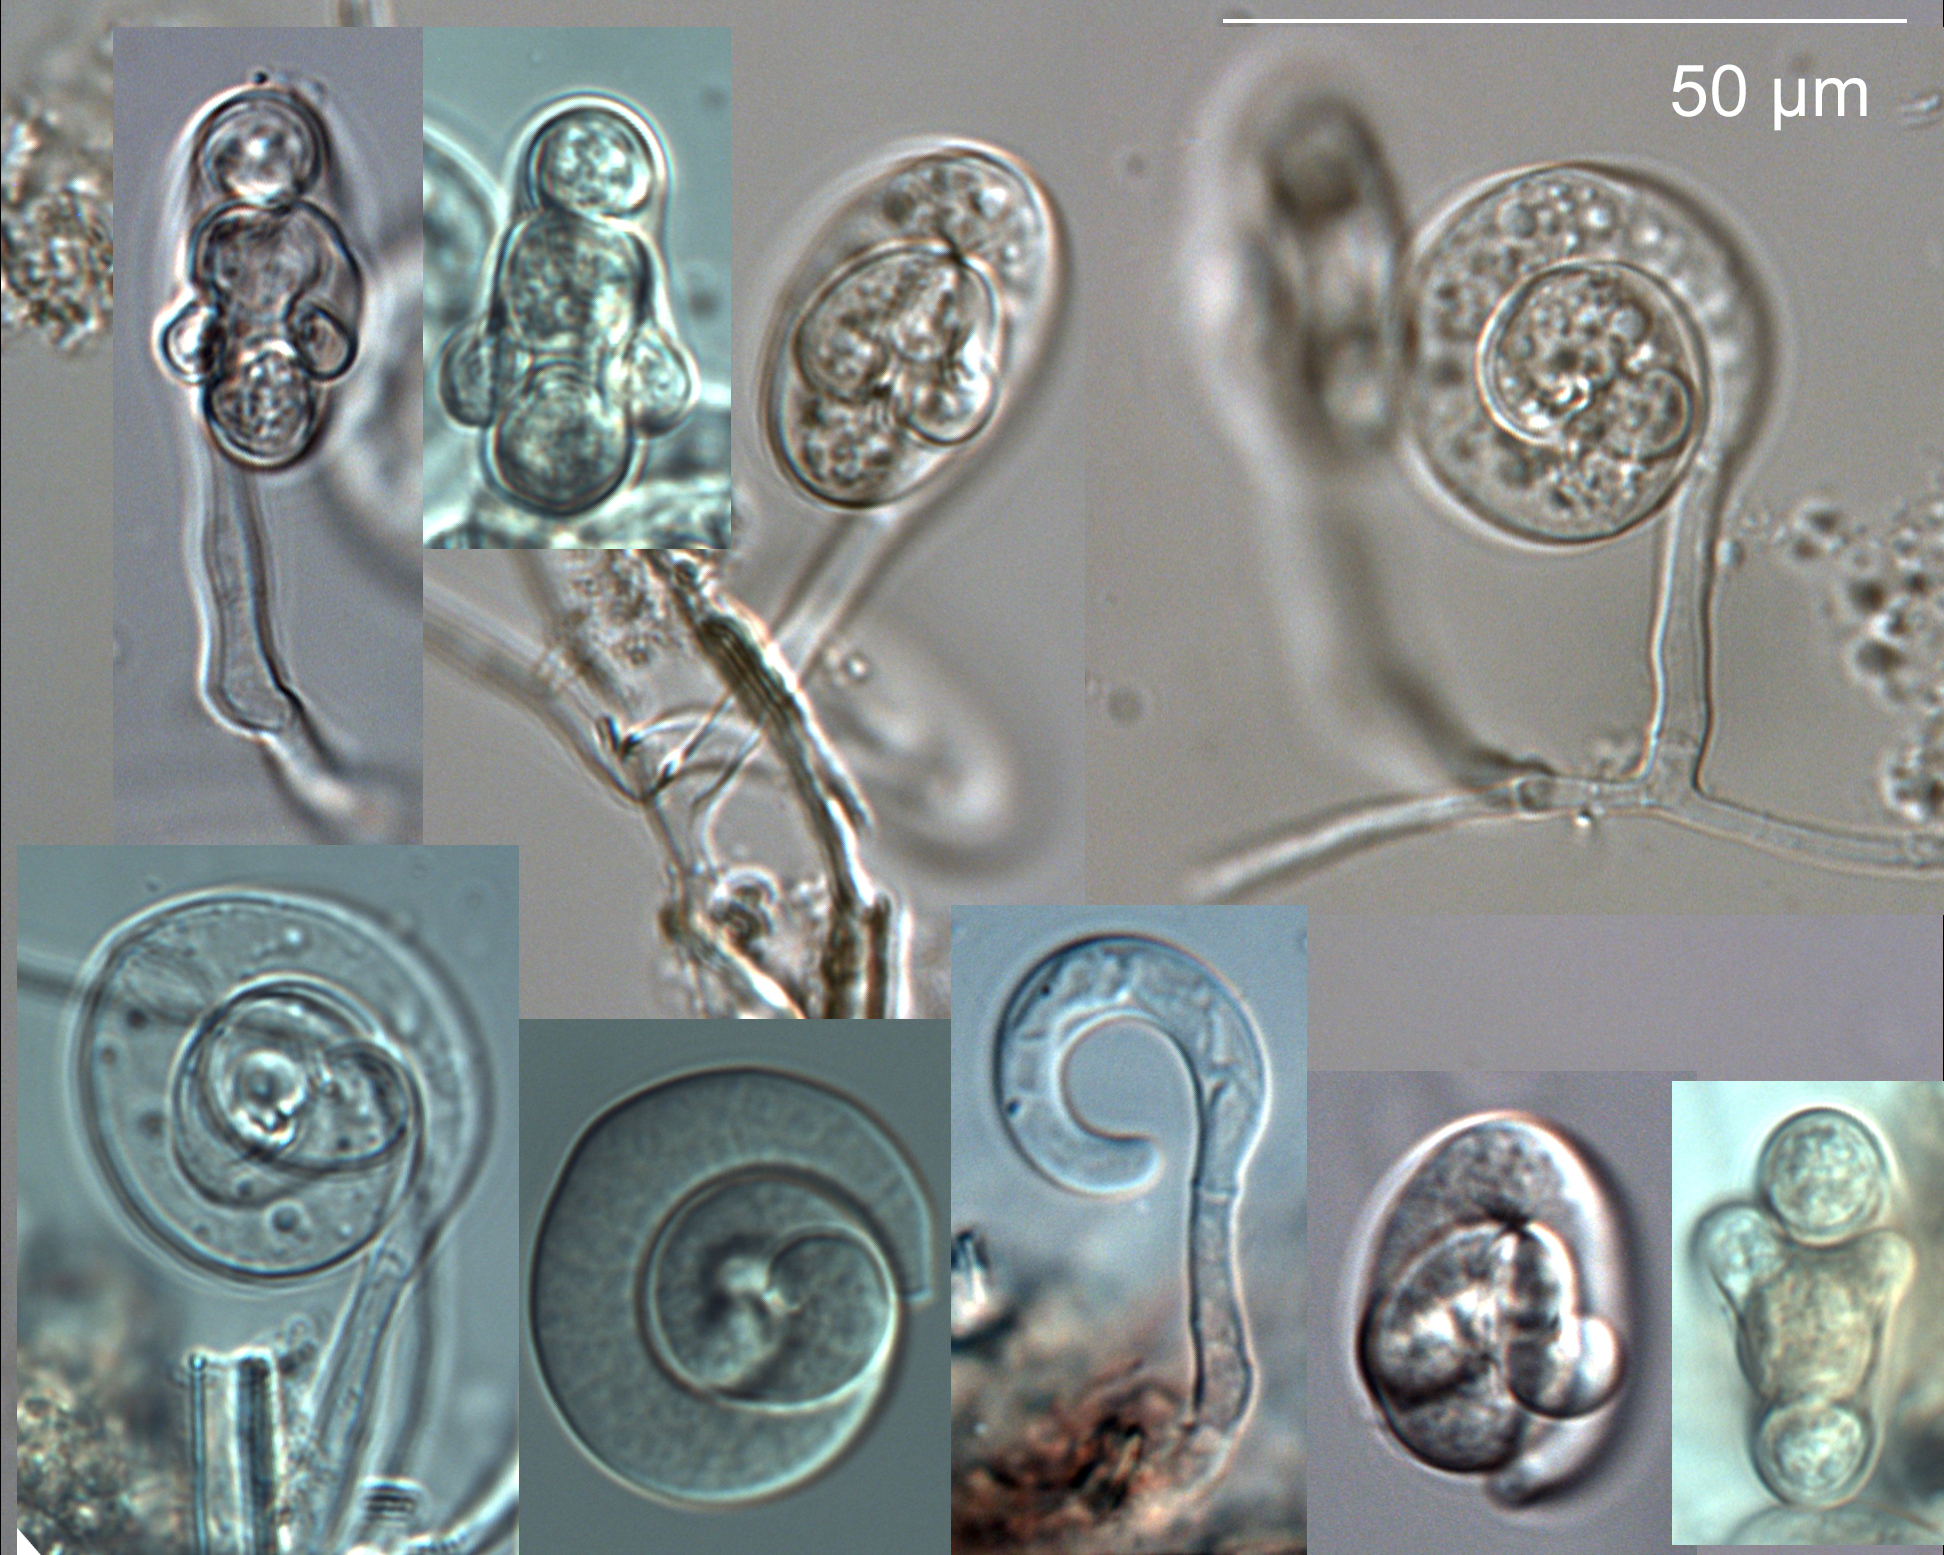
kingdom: Fungi
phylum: Ascomycota
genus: Diplorhynchus
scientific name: Diplorhynchus biloba
